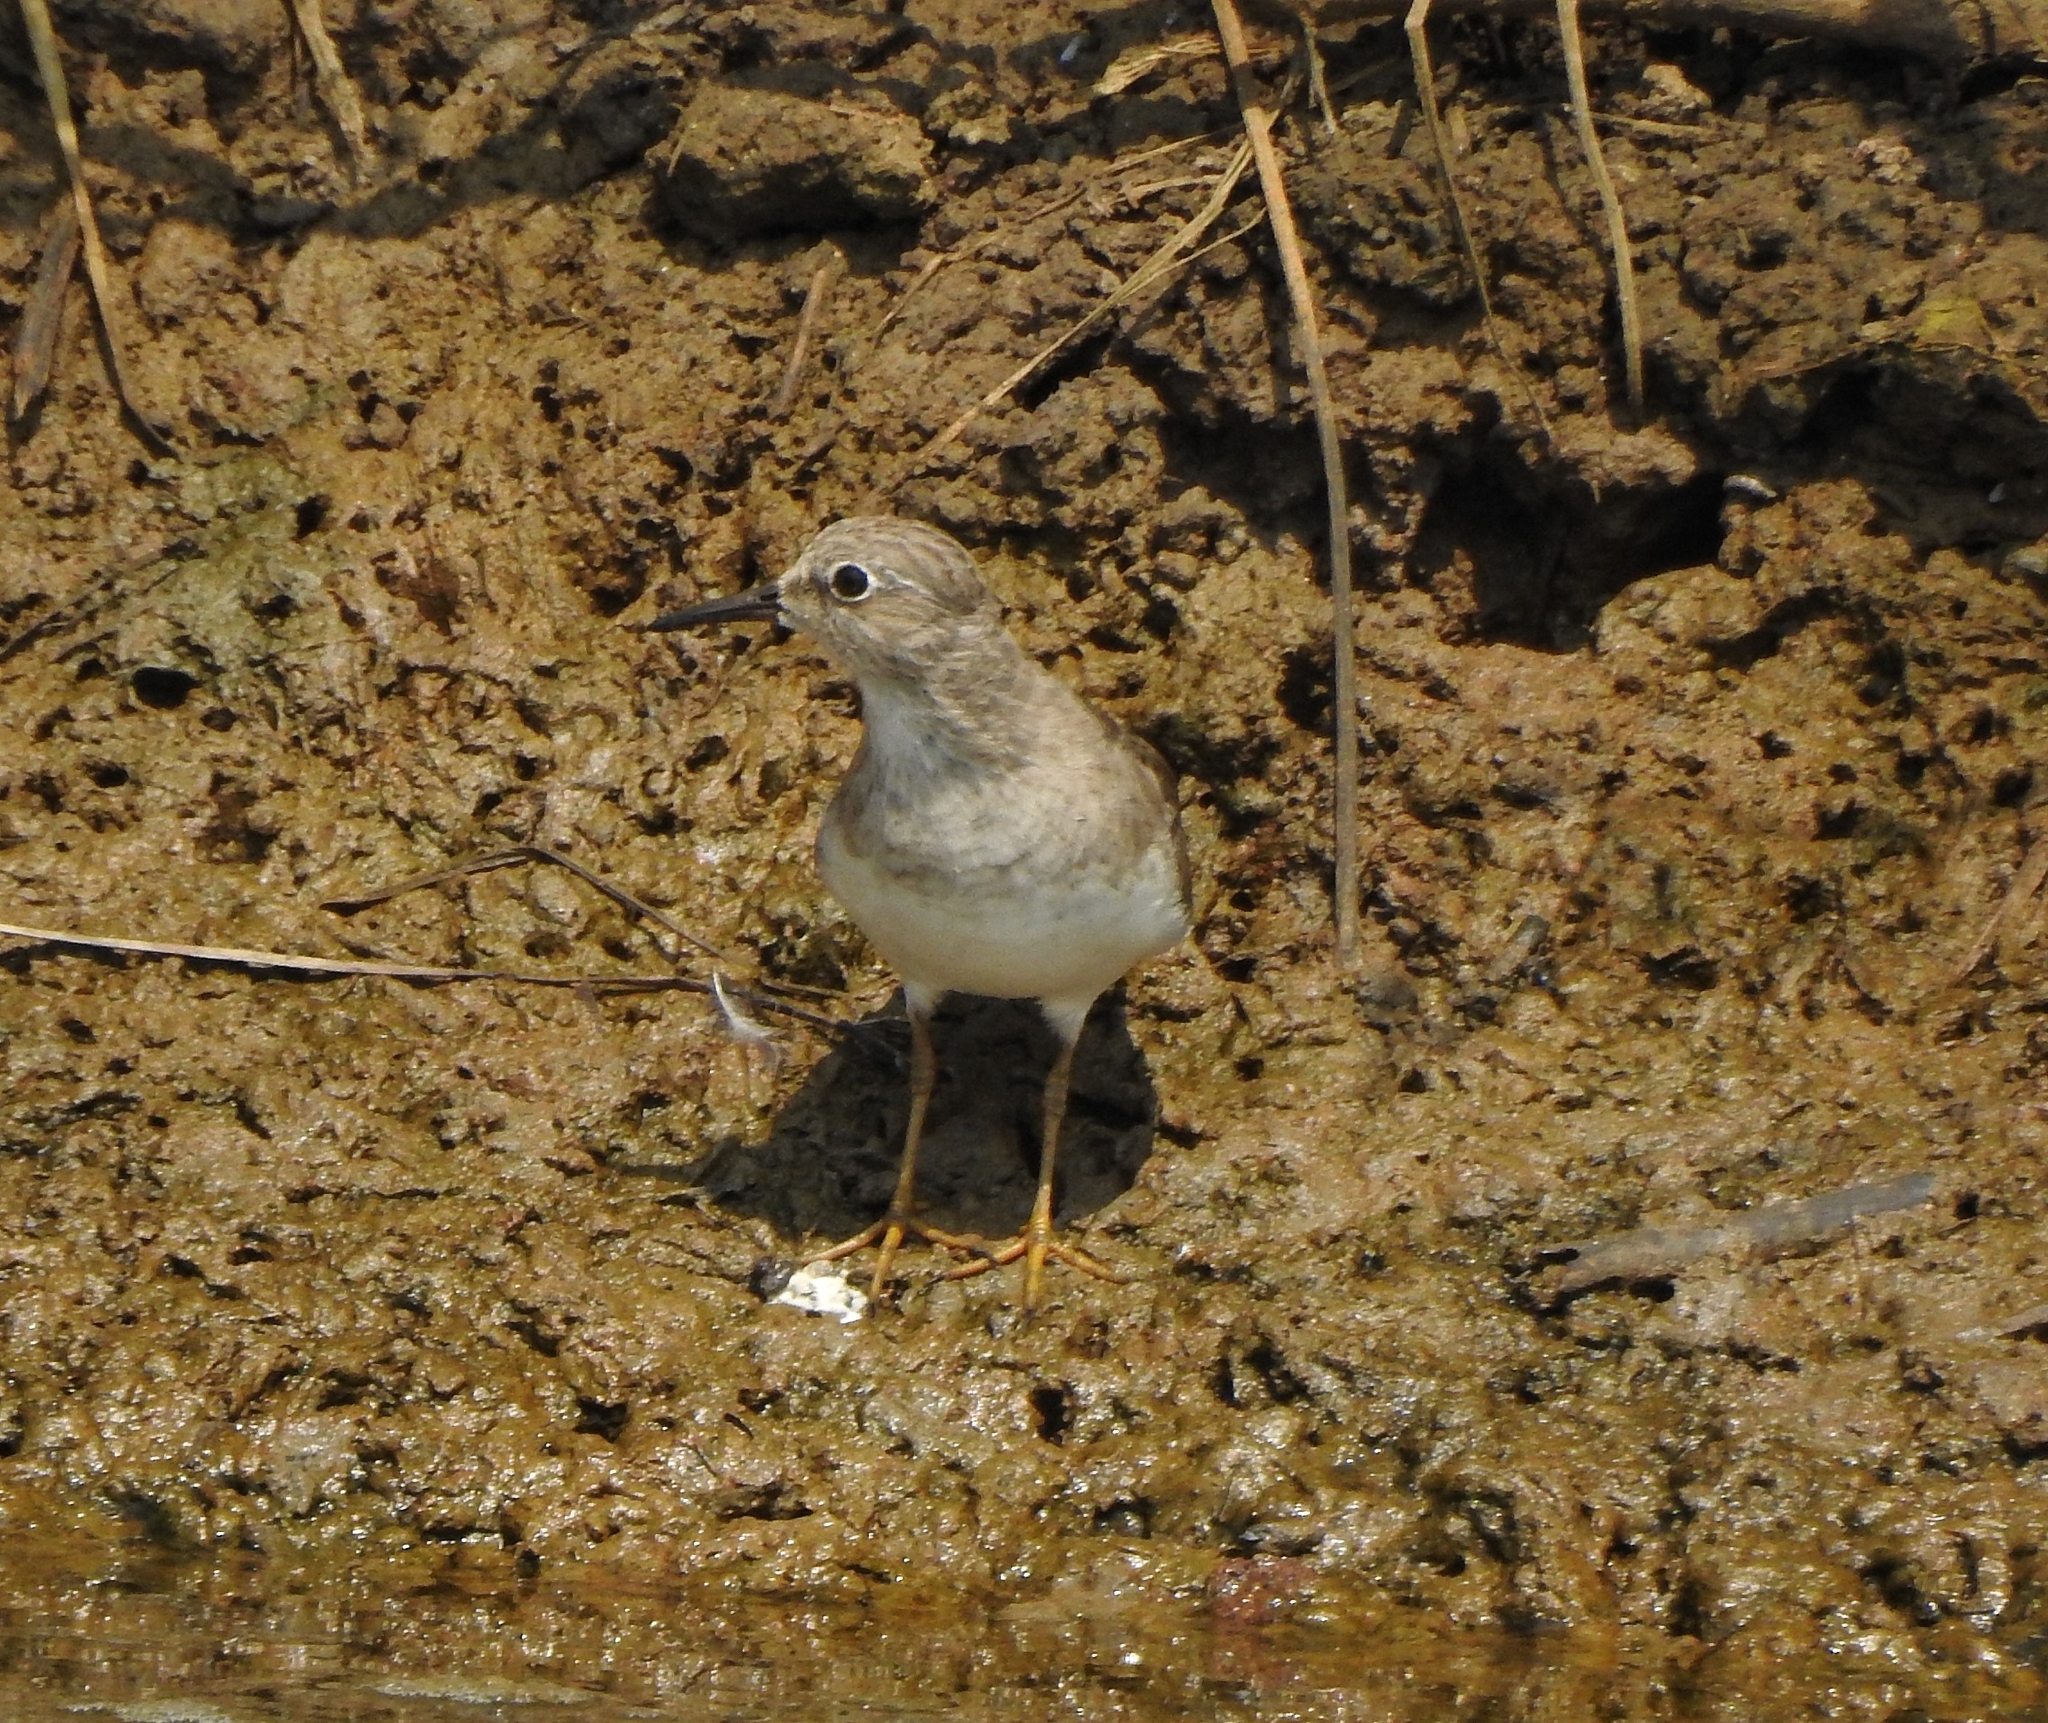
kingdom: Animalia
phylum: Chordata
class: Aves
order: Charadriiformes
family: Scolopacidae
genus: Calidris
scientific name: Calidris temminckii
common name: Temminck's stint
